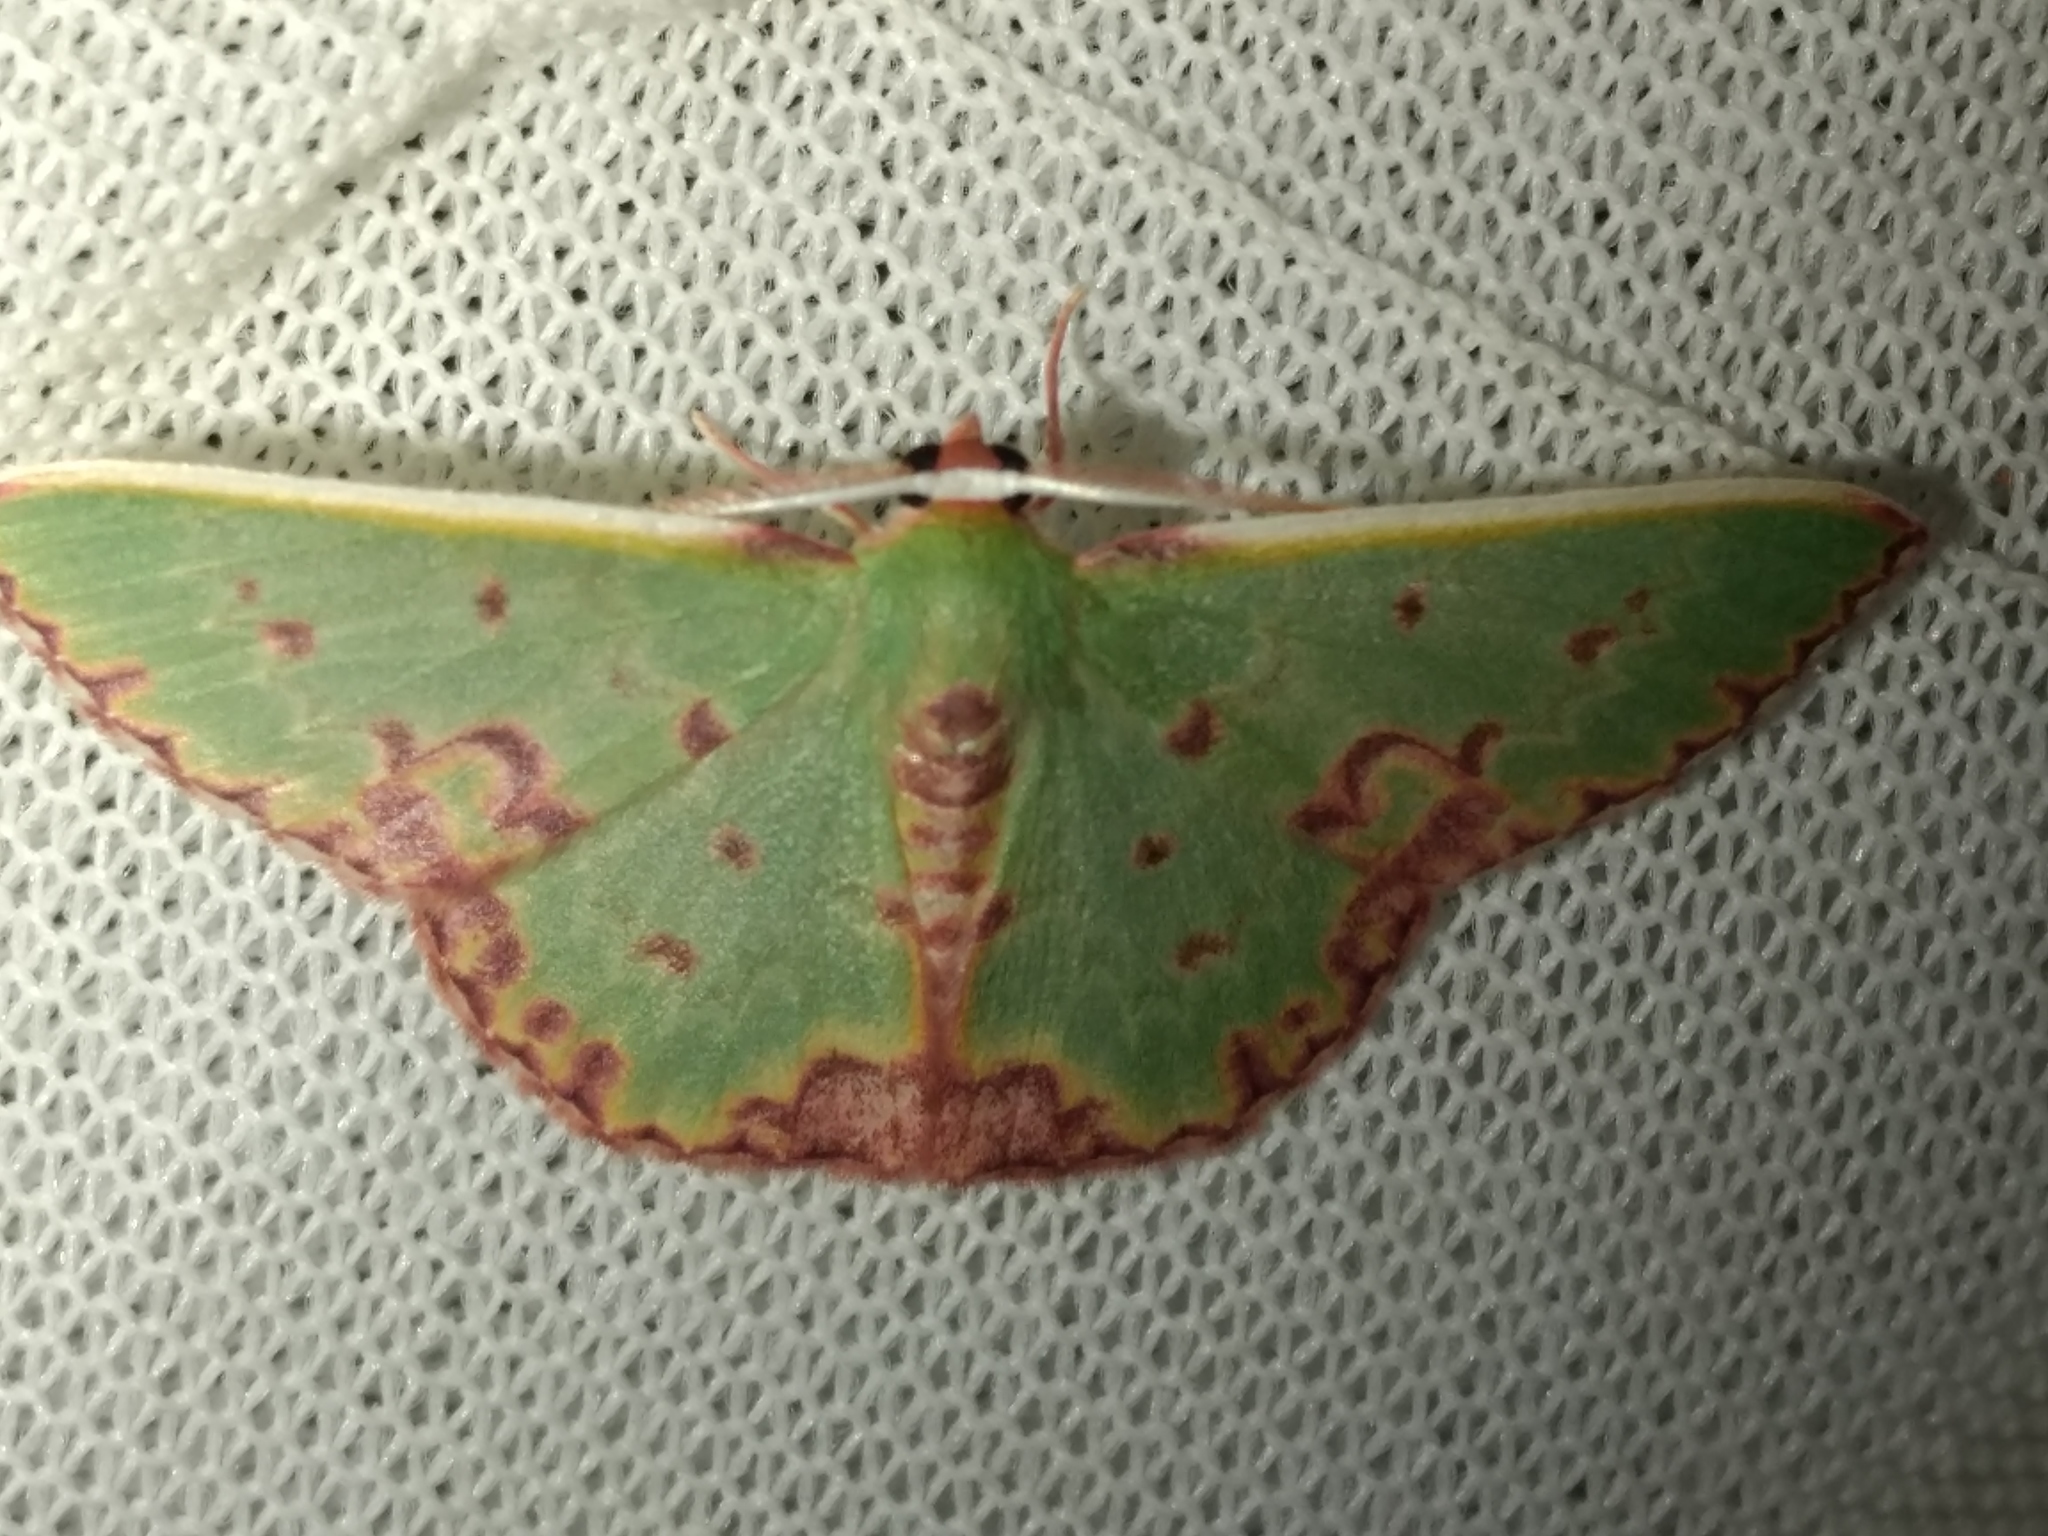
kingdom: Animalia
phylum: Arthropoda
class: Insecta
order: Lepidoptera
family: Geometridae
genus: Prasinocyma
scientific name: Prasinocyma rhodocosma
